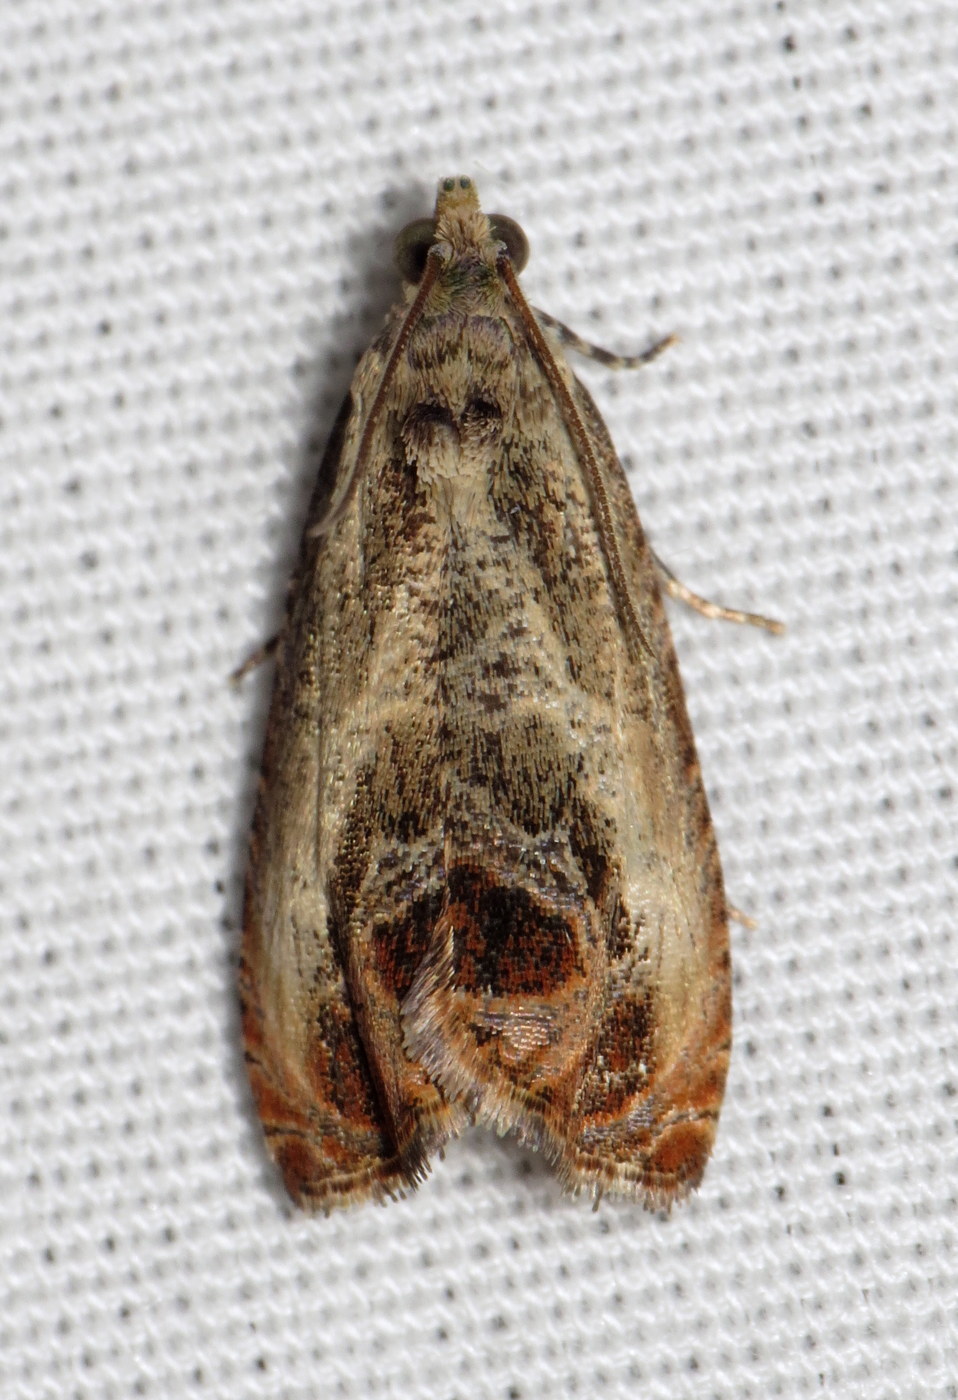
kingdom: Animalia
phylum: Arthropoda
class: Insecta
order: Lepidoptera
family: Tortricidae
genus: Olethreutes
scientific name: Olethreutes hamameliana
